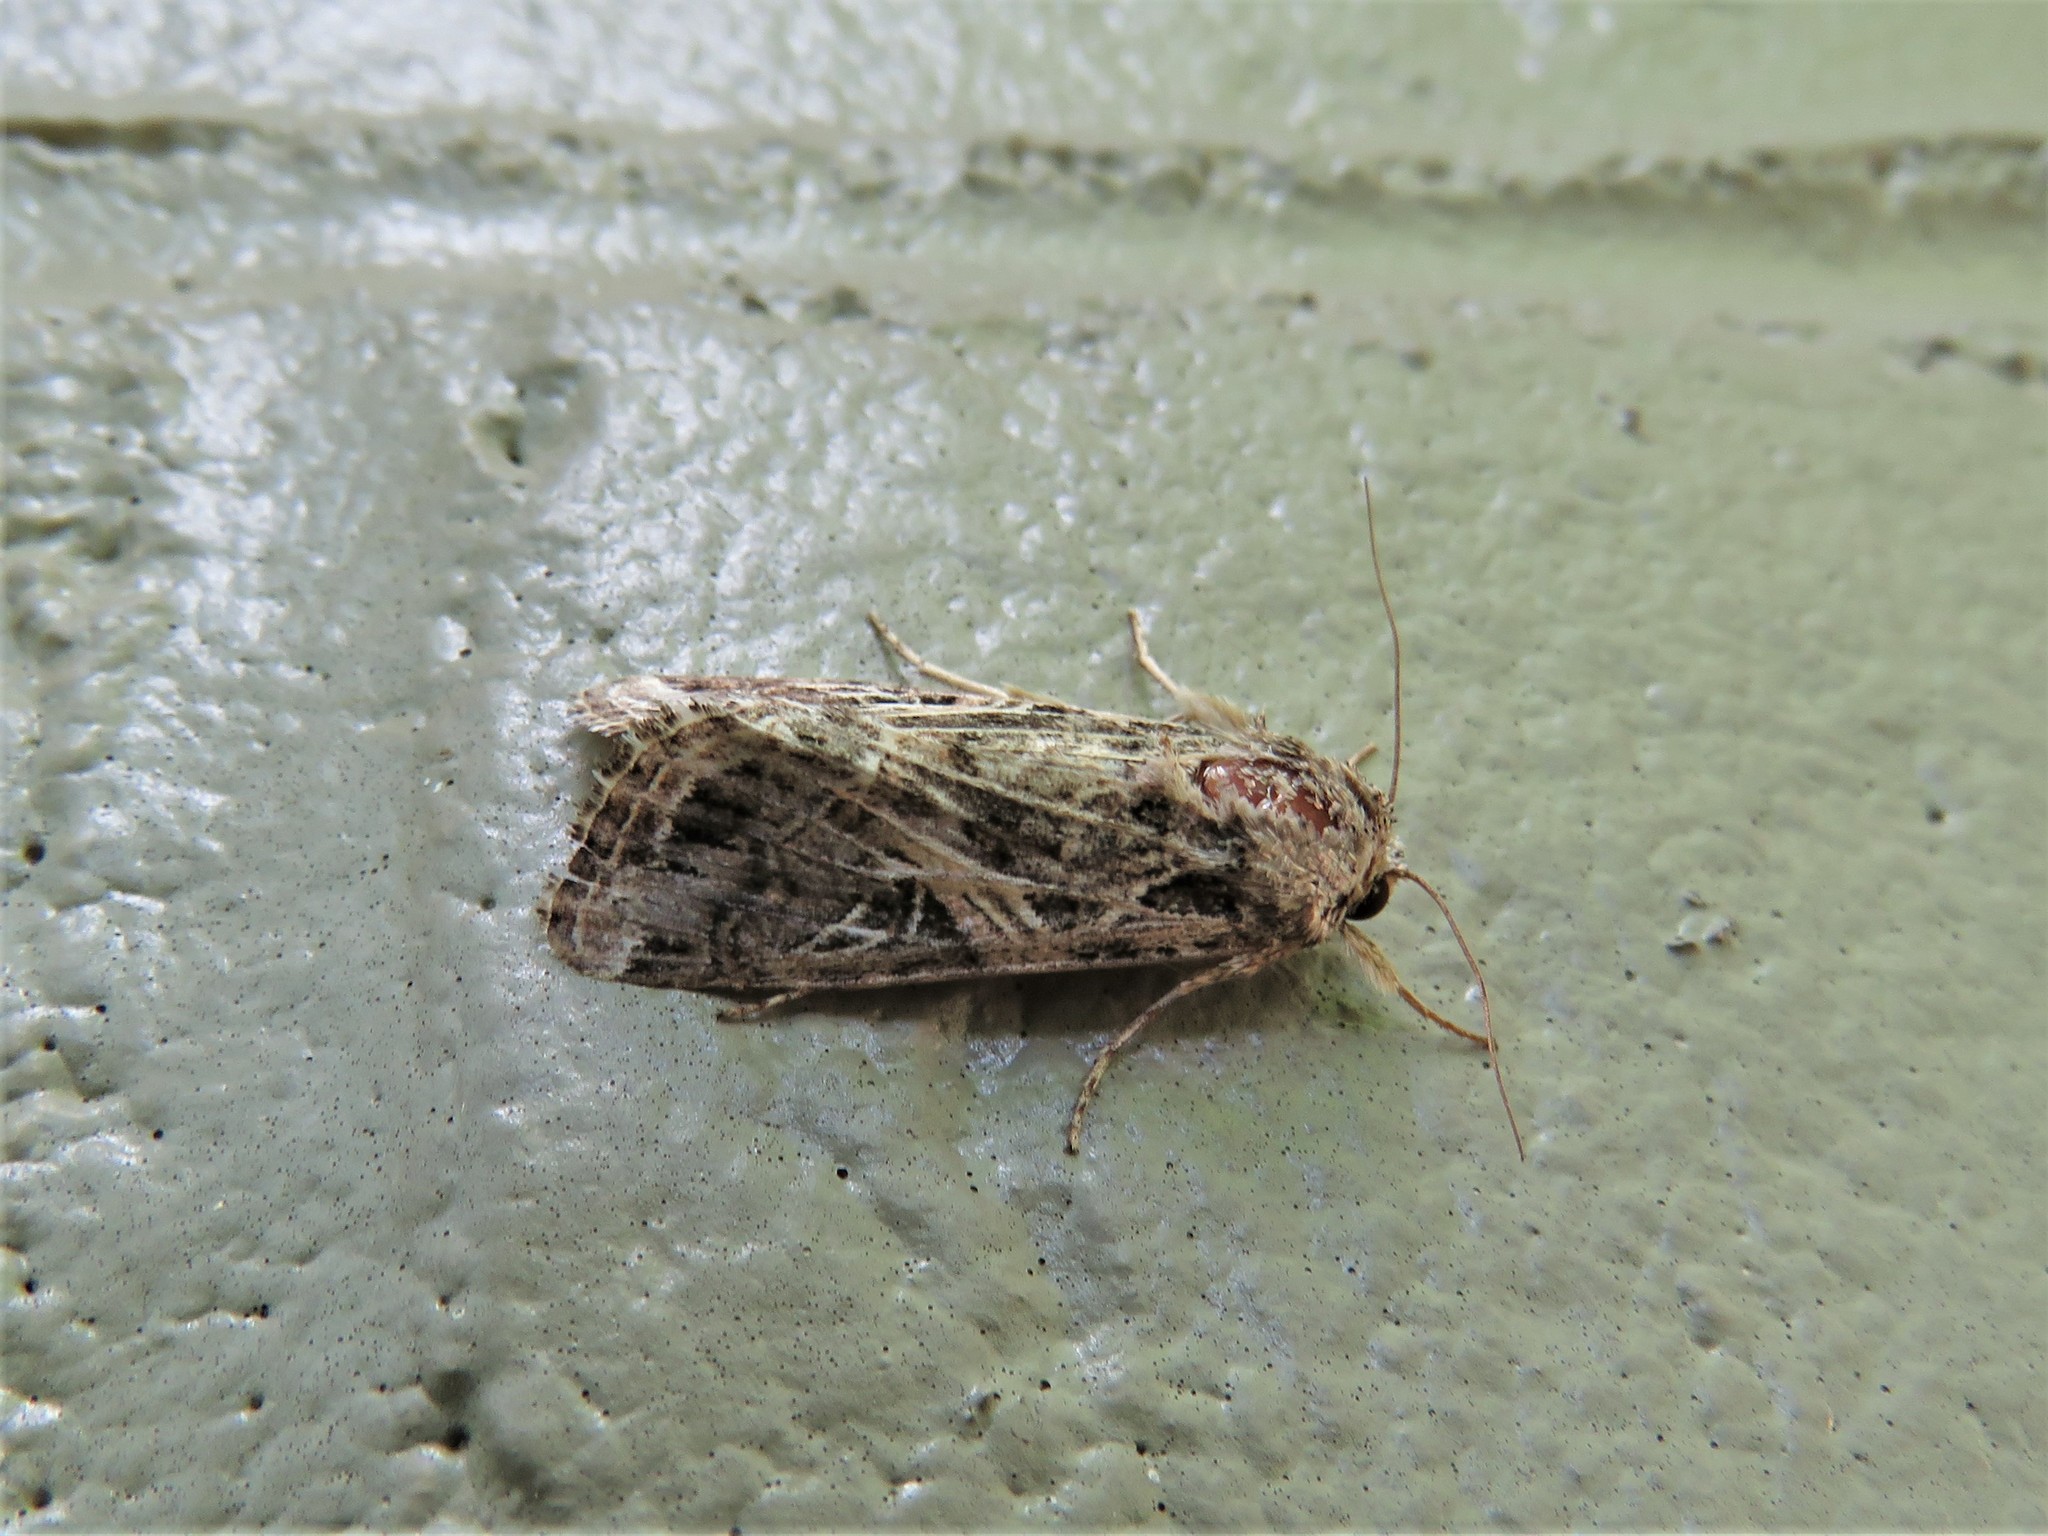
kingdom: Animalia
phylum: Arthropoda
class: Insecta
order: Lepidoptera
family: Noctuidae
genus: Spodoptera
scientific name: Spodoptera ornithogalli
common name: Yellow-striped armyworm
